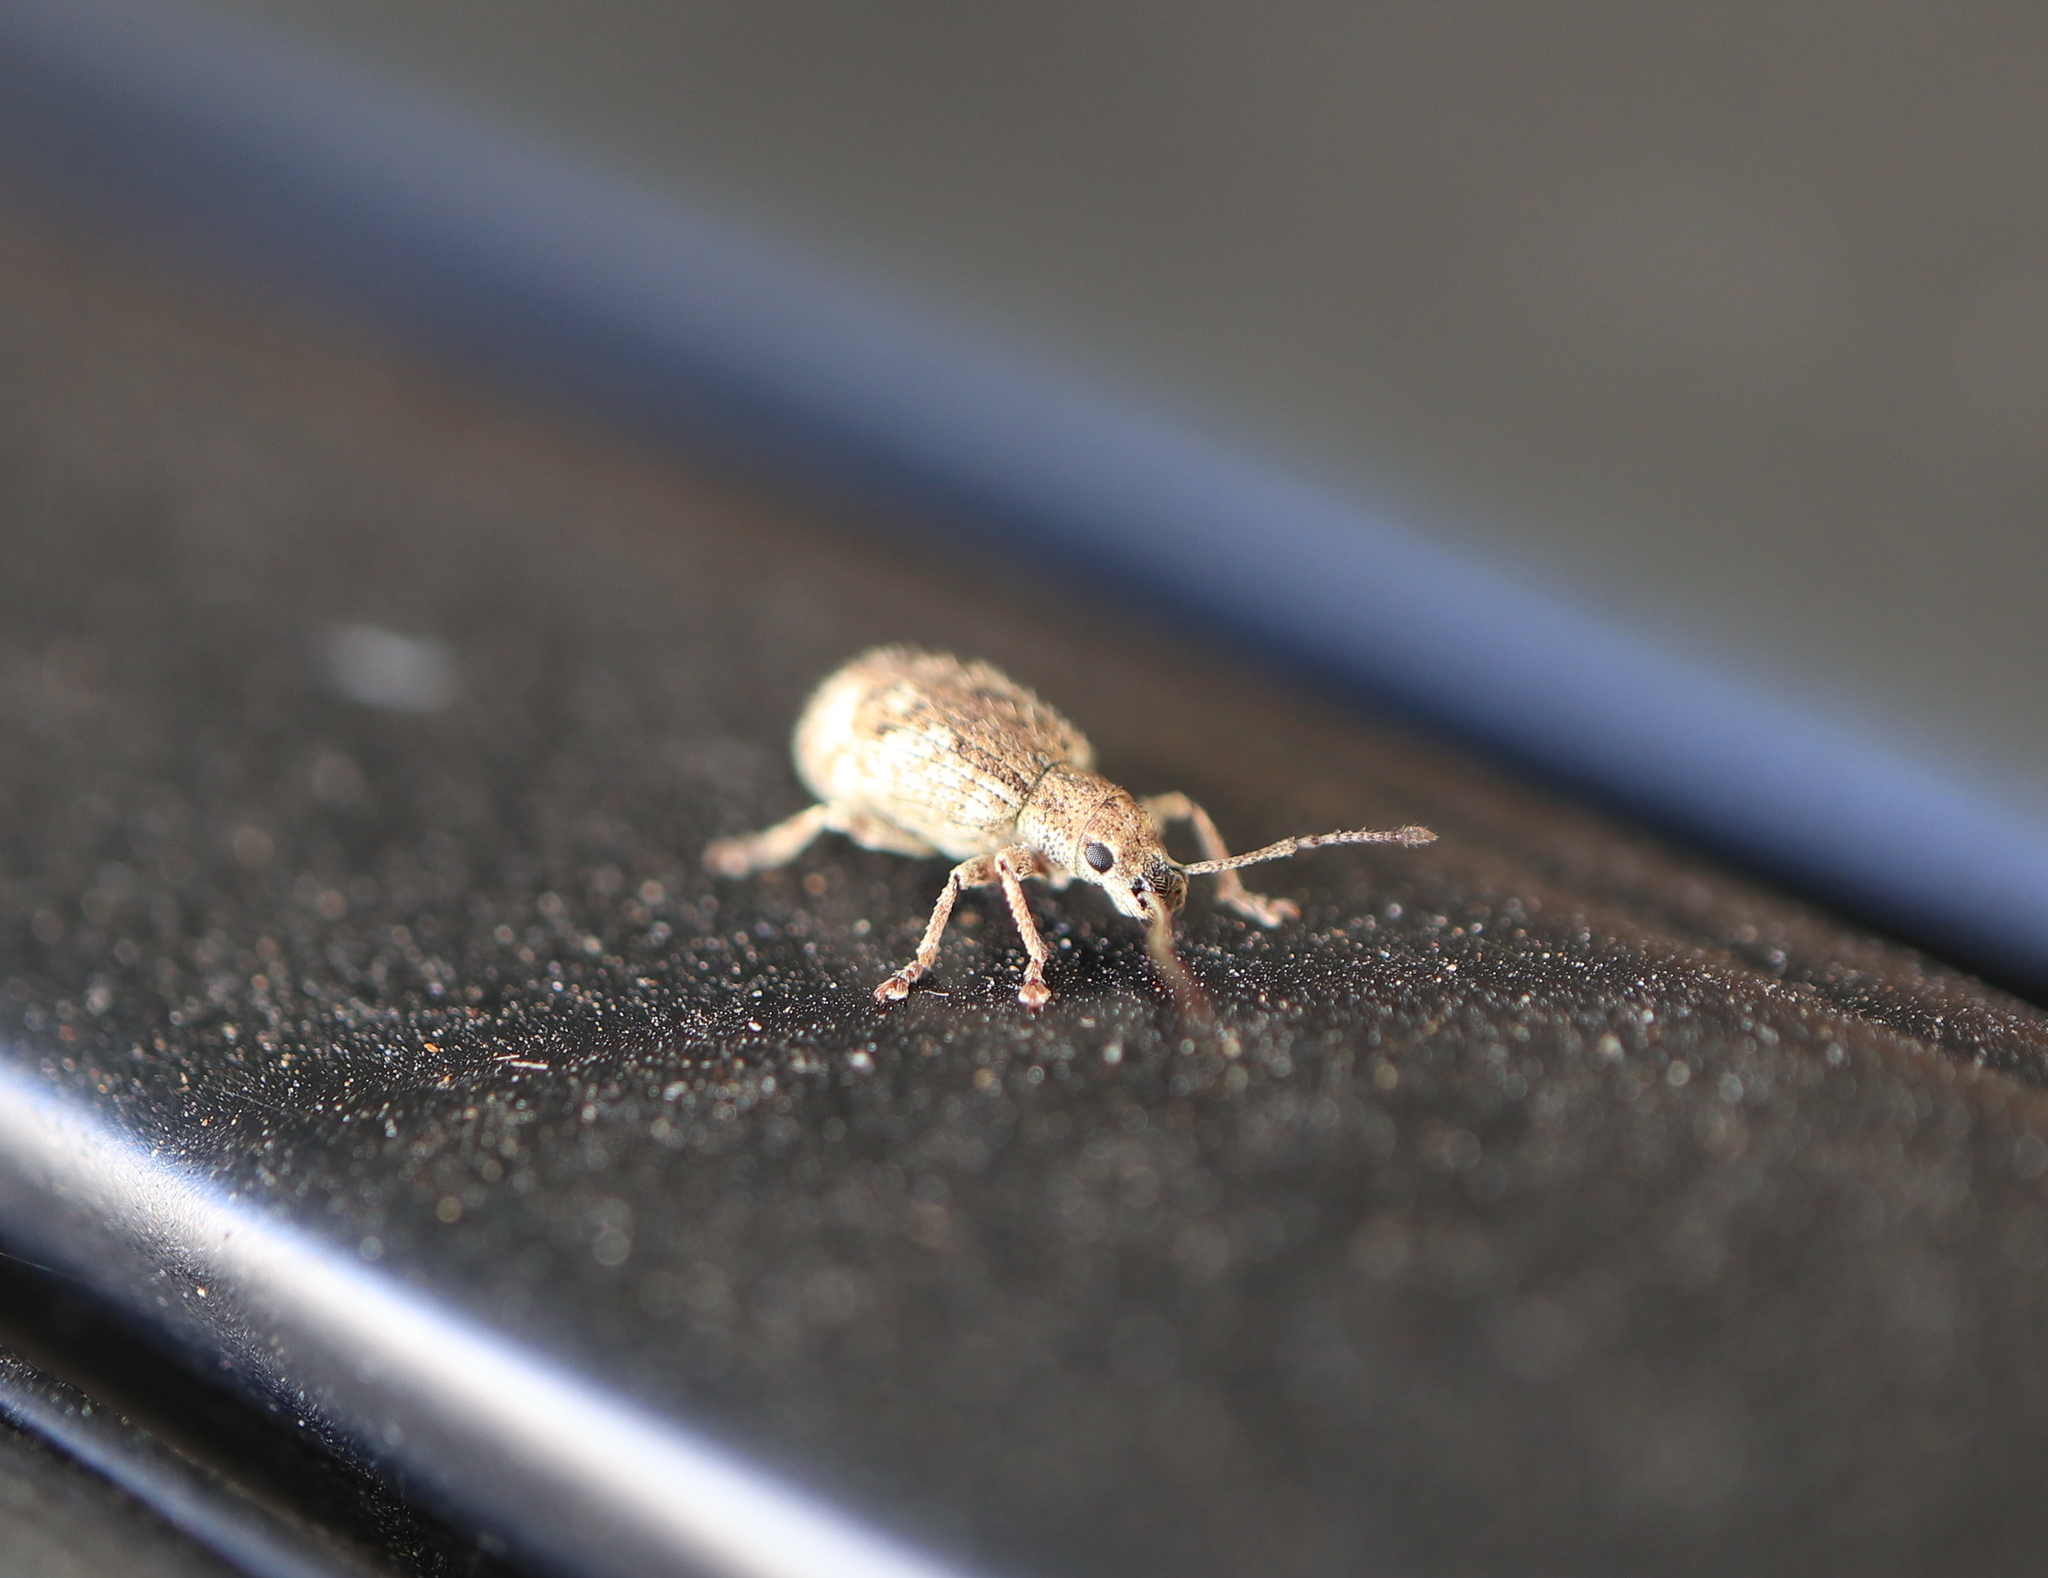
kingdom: Animalia
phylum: Arthropoda
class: Insecta
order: Coleoptera
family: Curculionidae
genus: Pseudoedophrys
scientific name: Pseudoedophrys hilleri
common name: Weevil
